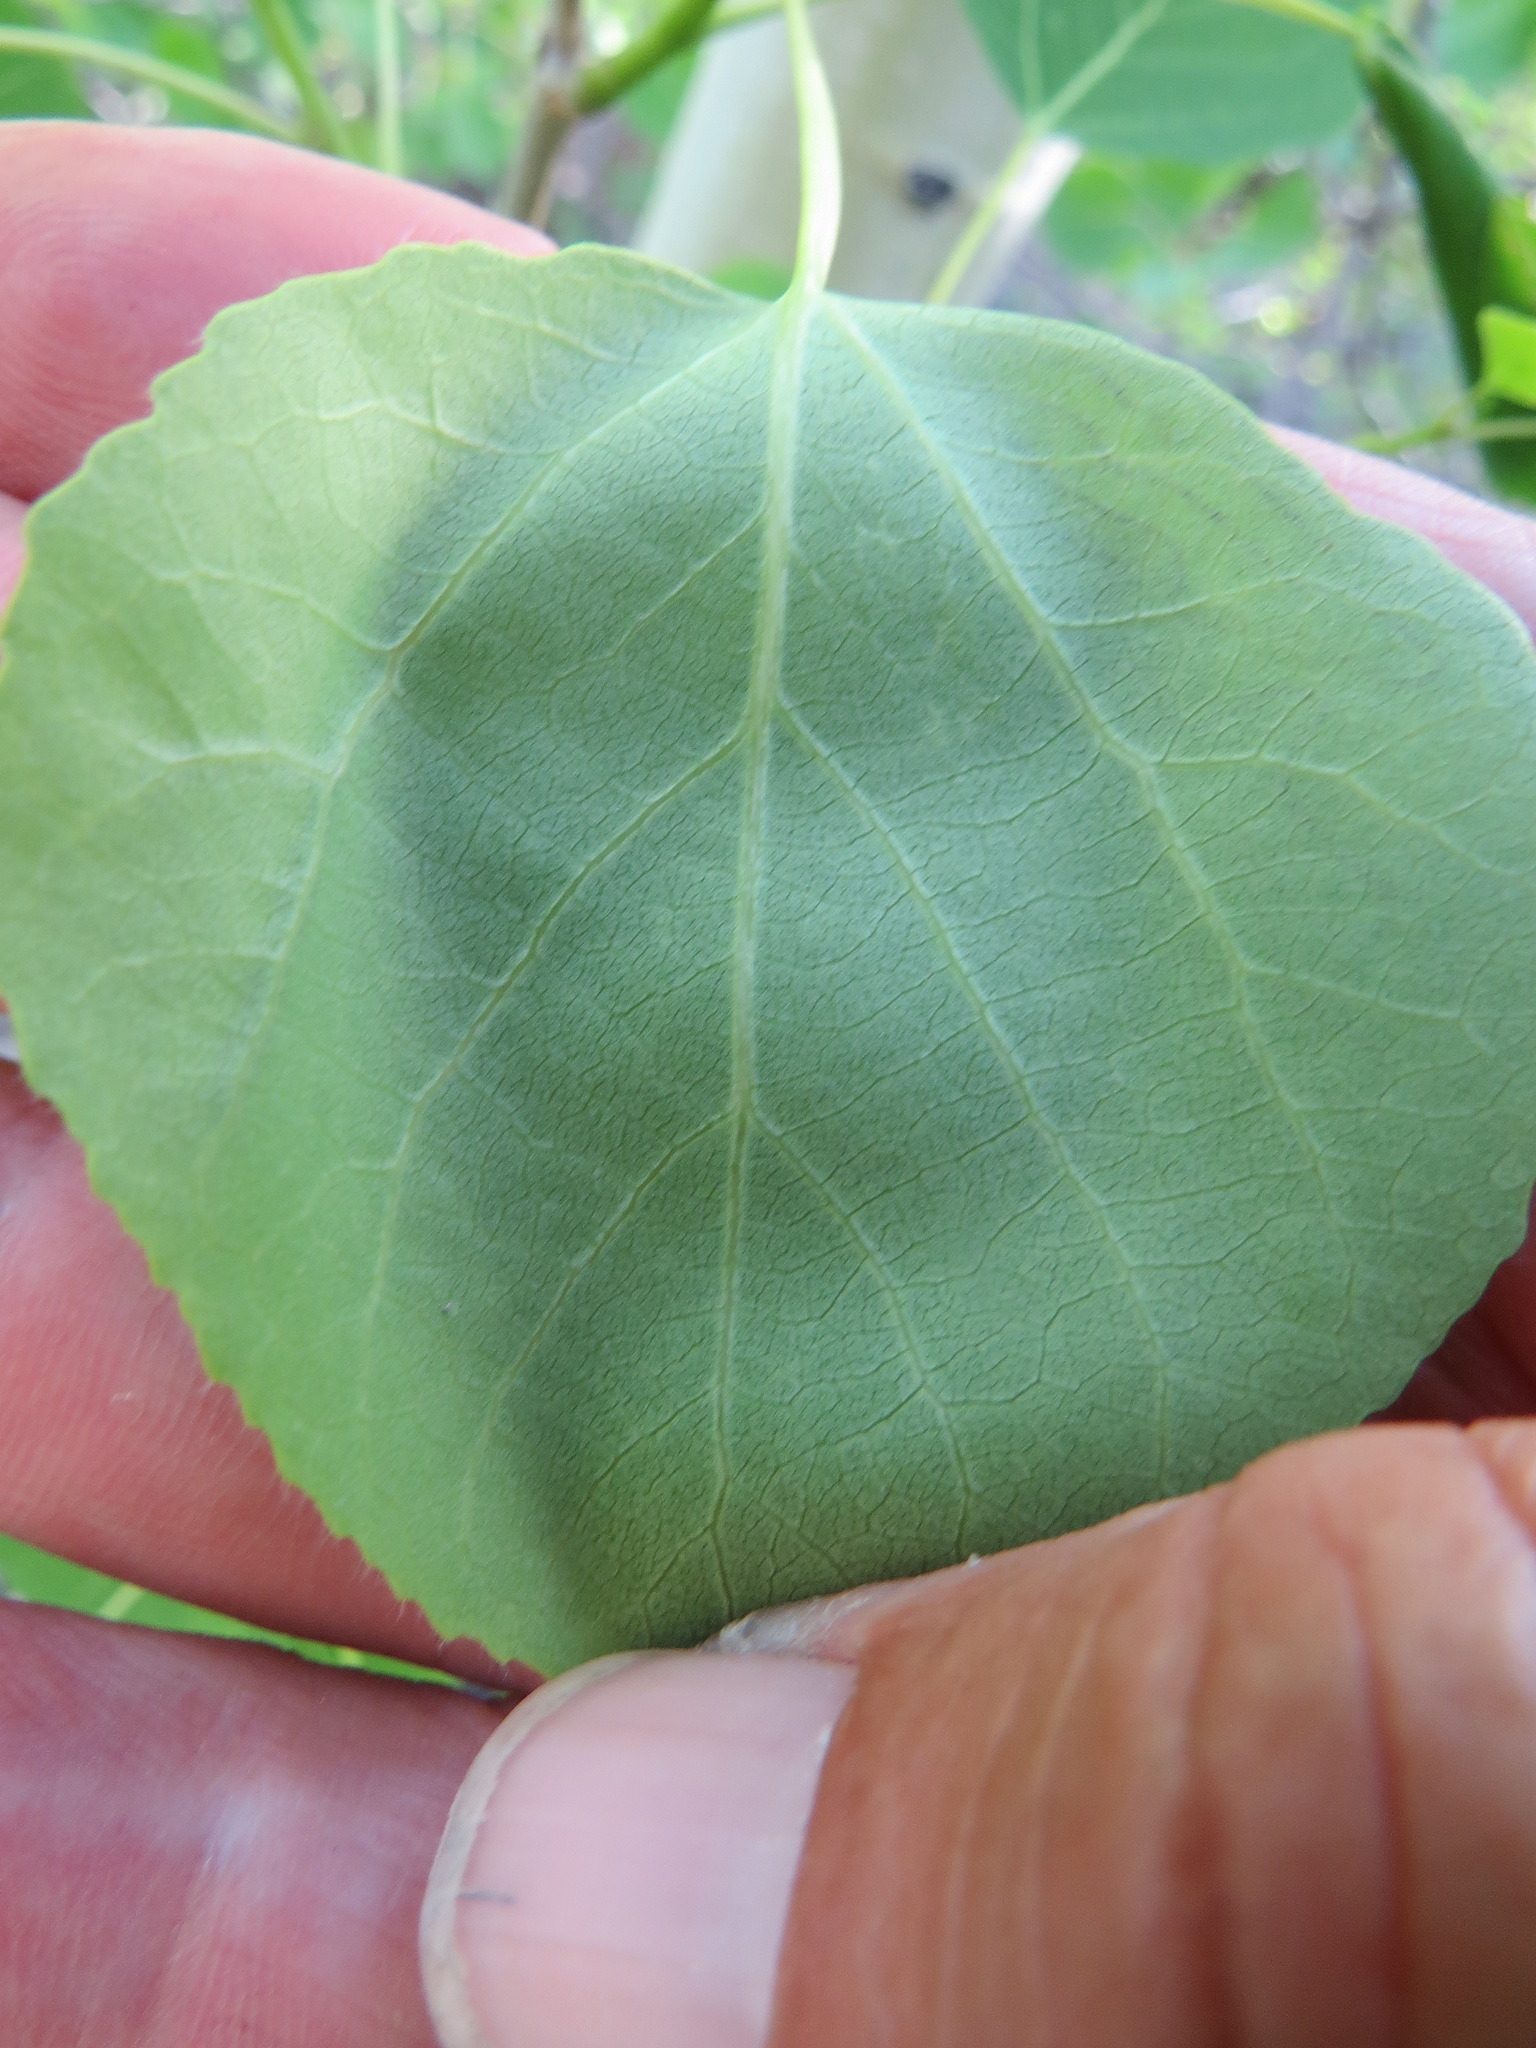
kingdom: Animalia
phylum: Arthropoda
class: Insecta
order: Lepidoptera
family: Gracillariidae
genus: Phyllocnistis
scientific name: Phyllocnistis populiella
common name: Aspen serpentine leafminer moth
